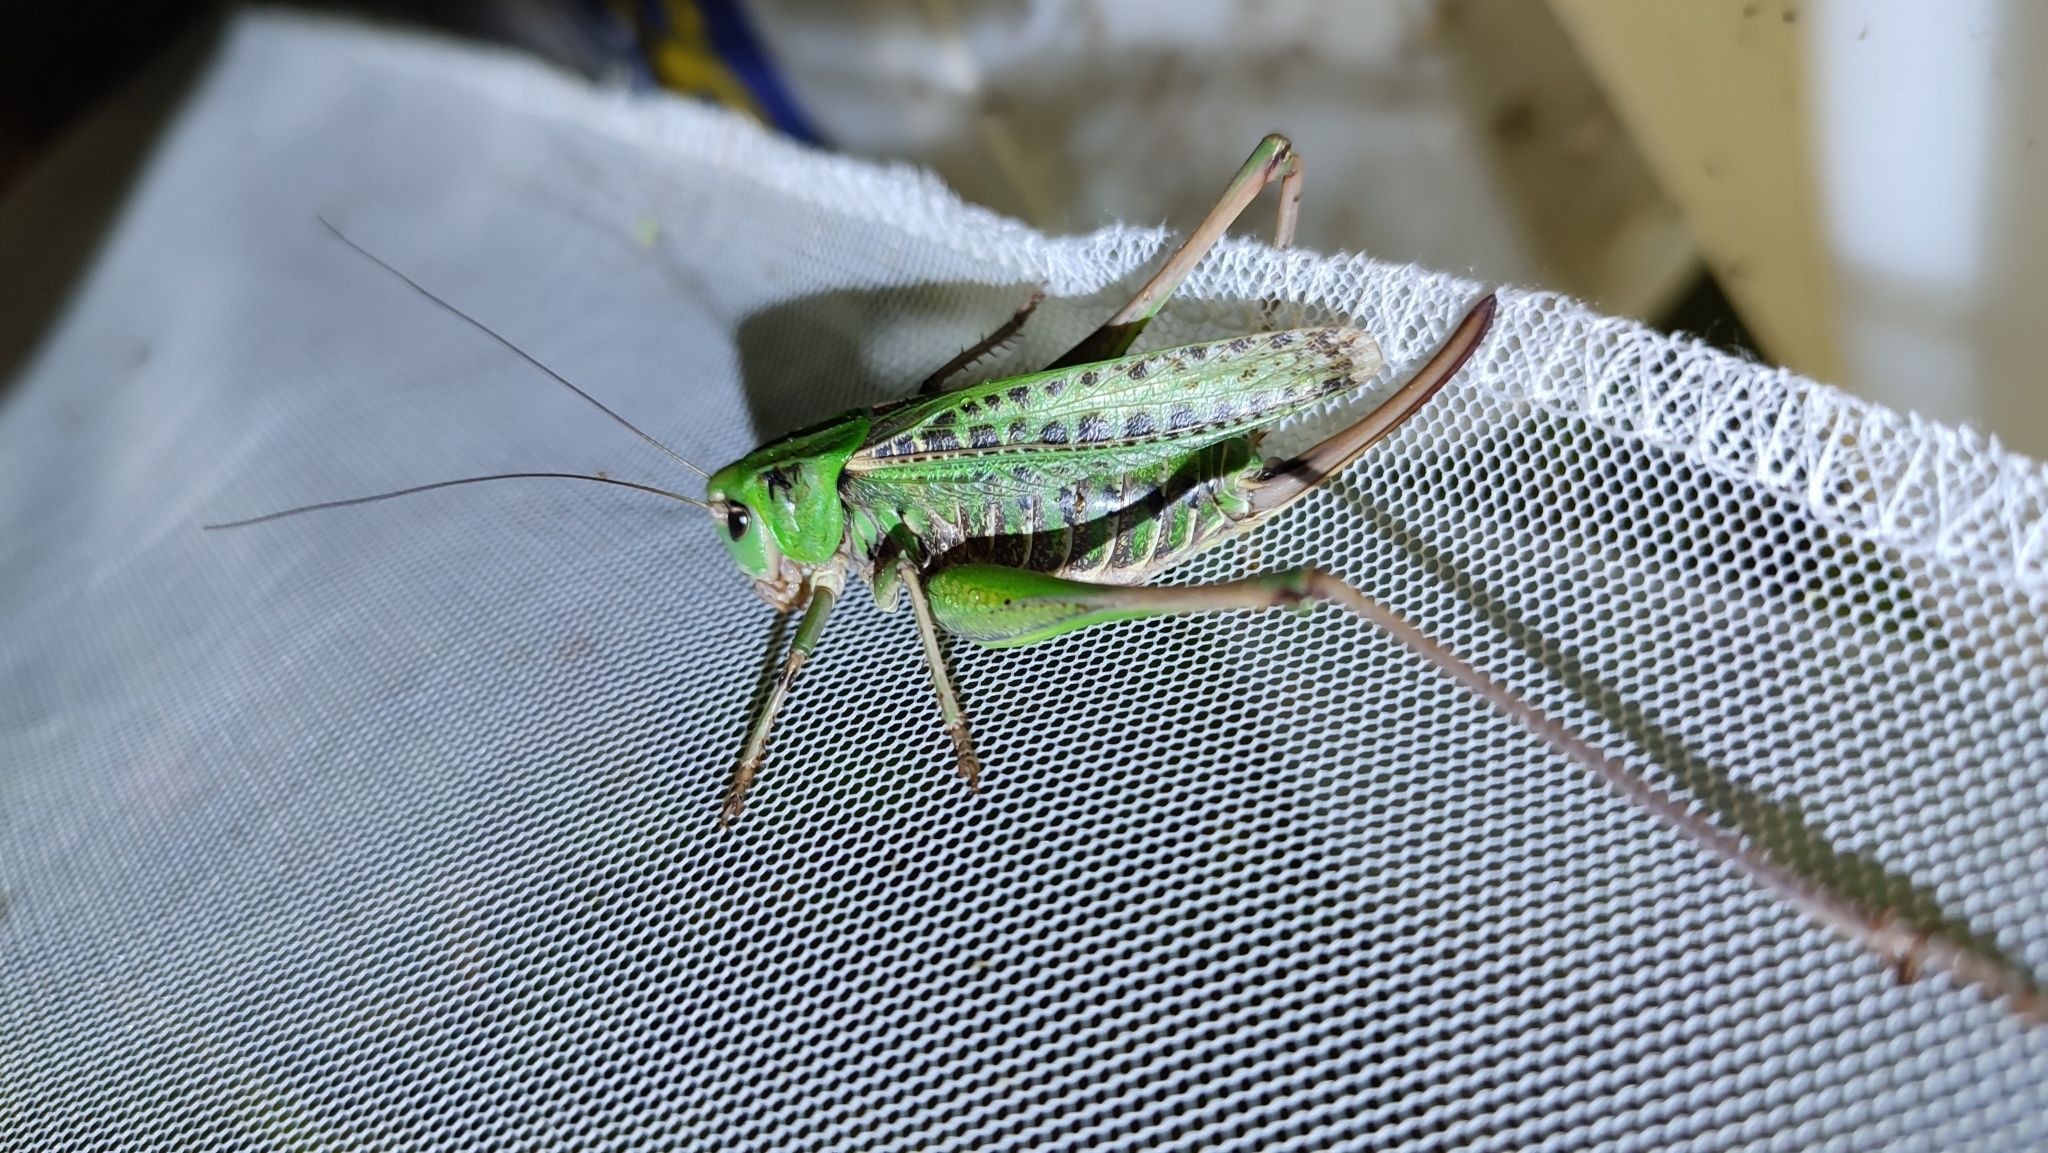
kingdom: Animalia
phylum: Arthropoda
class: Insecta
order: Orthoptera
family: Tettigoniidae
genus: Decticus
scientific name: Decticus verrucivorus
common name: Wart-biter
